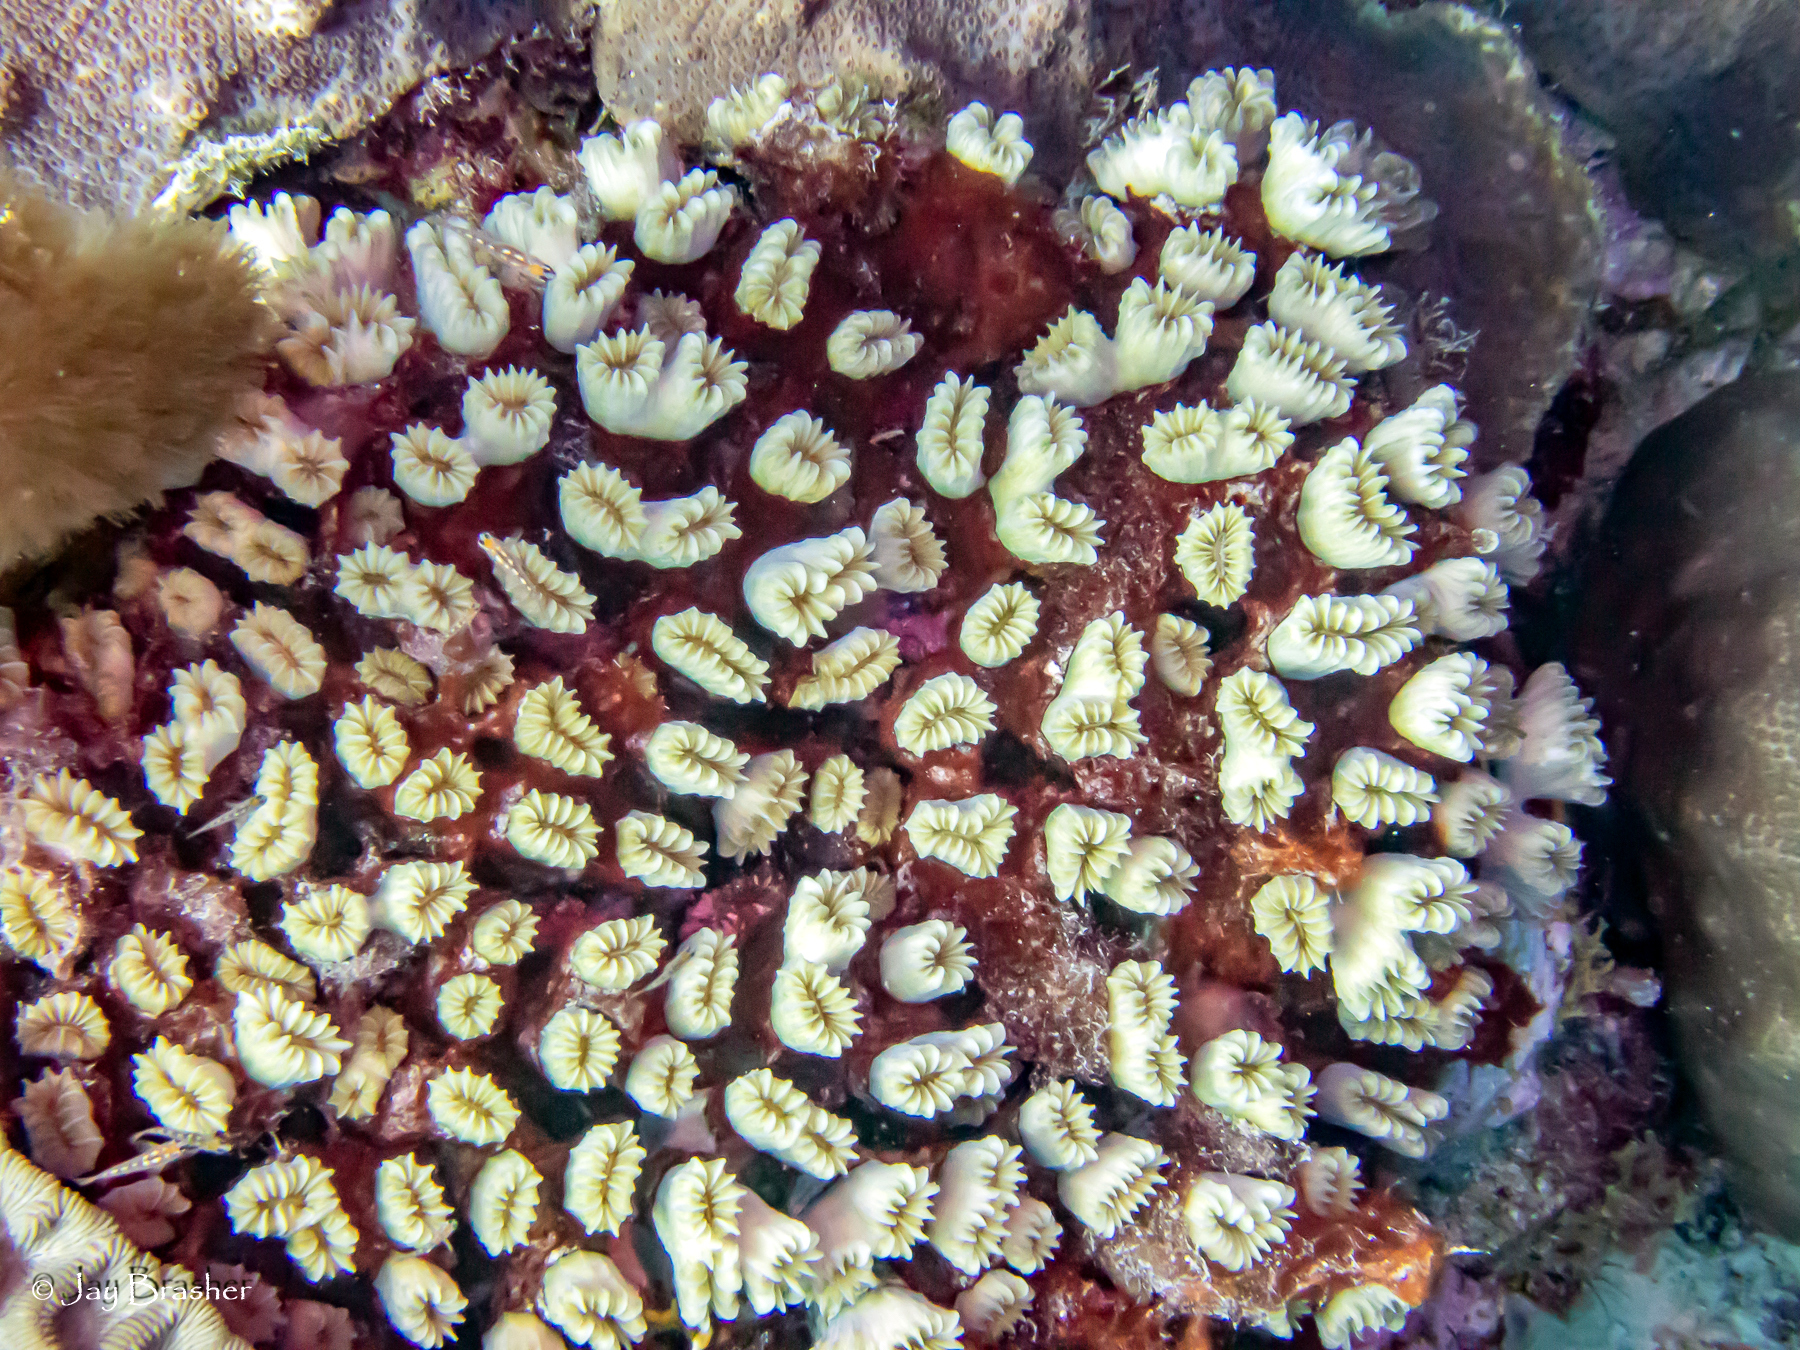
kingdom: Animalia
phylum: Cnidaria
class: Anthozoa
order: Scleractinia
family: Meandrinidae
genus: Eusmilia
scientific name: Eusmilia fastigiata
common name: Smooth flower coral
